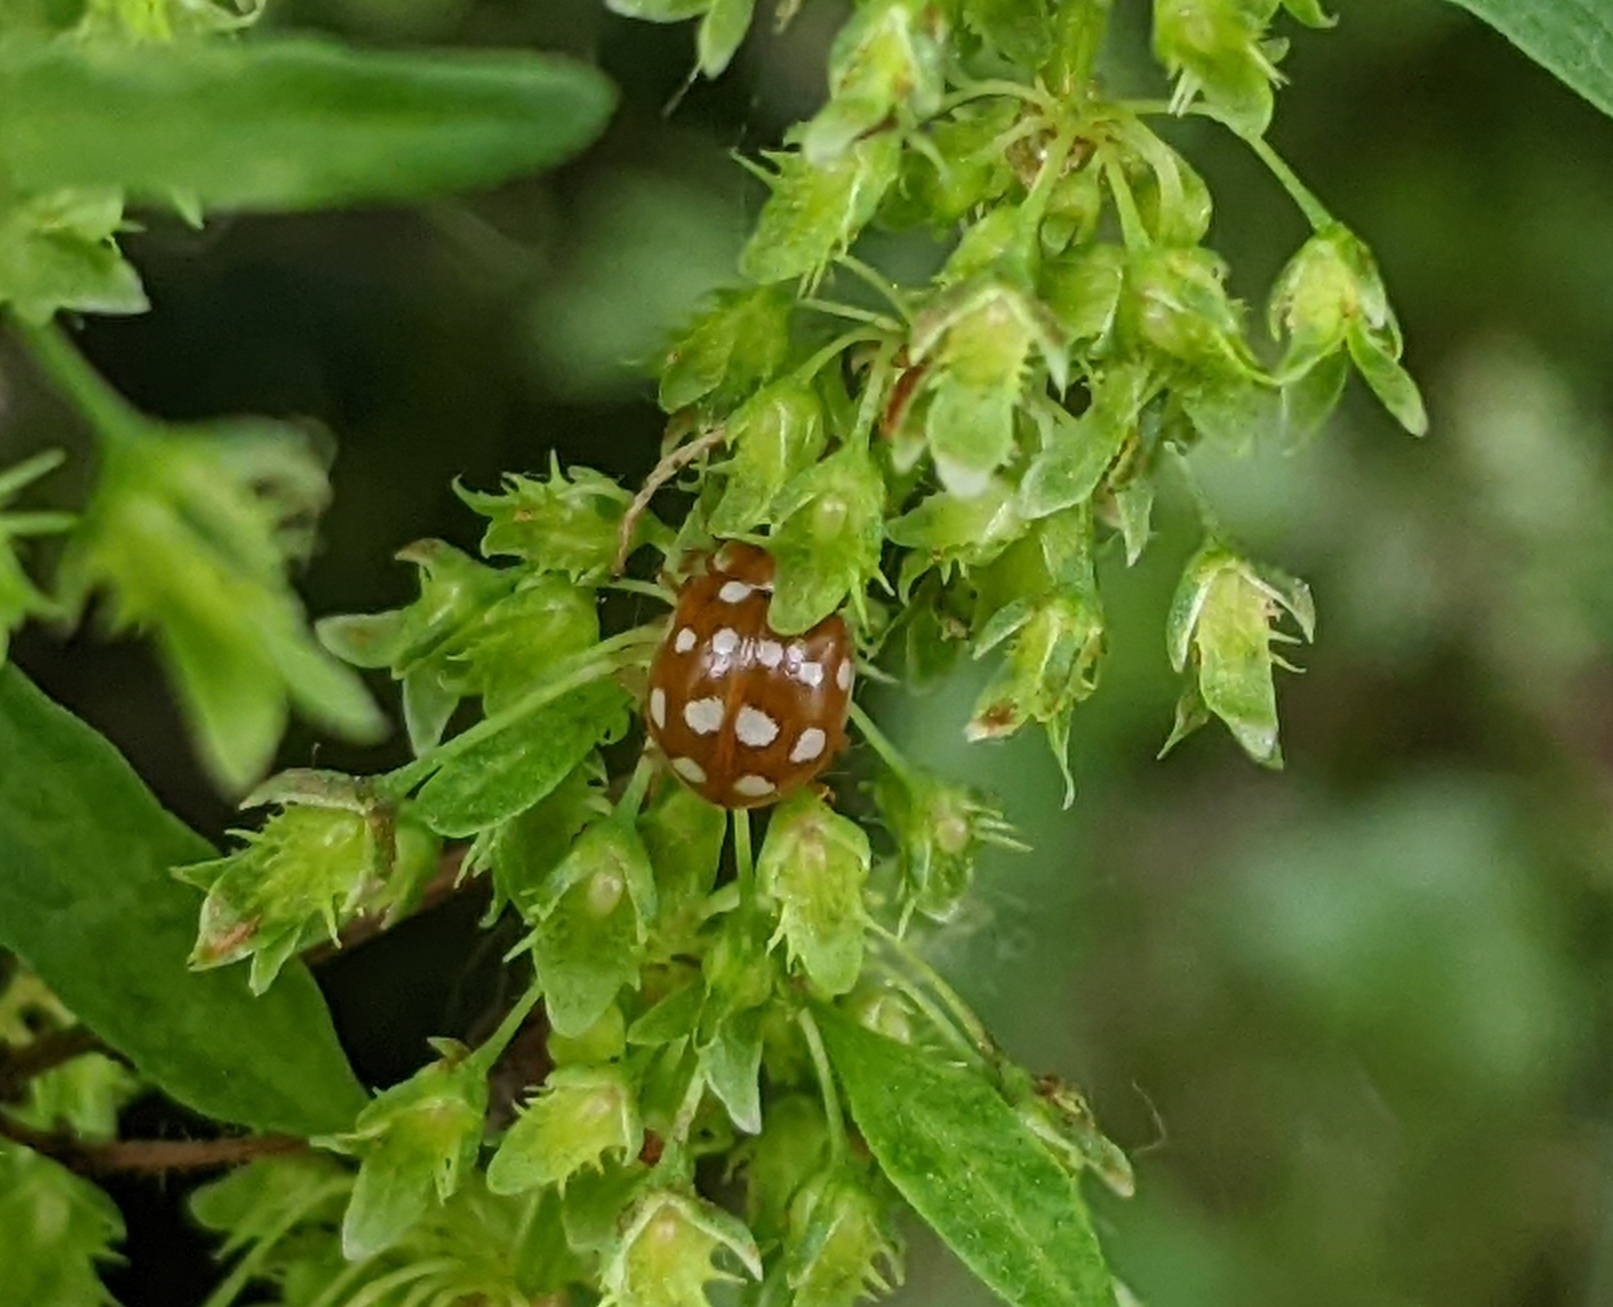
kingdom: Animalia
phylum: Arthropoda
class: Insecta
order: Coleoptera
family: Coccinellidae
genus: Calvia
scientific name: Calvia quatuordecimguttata
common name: Cream-spot ladybird
